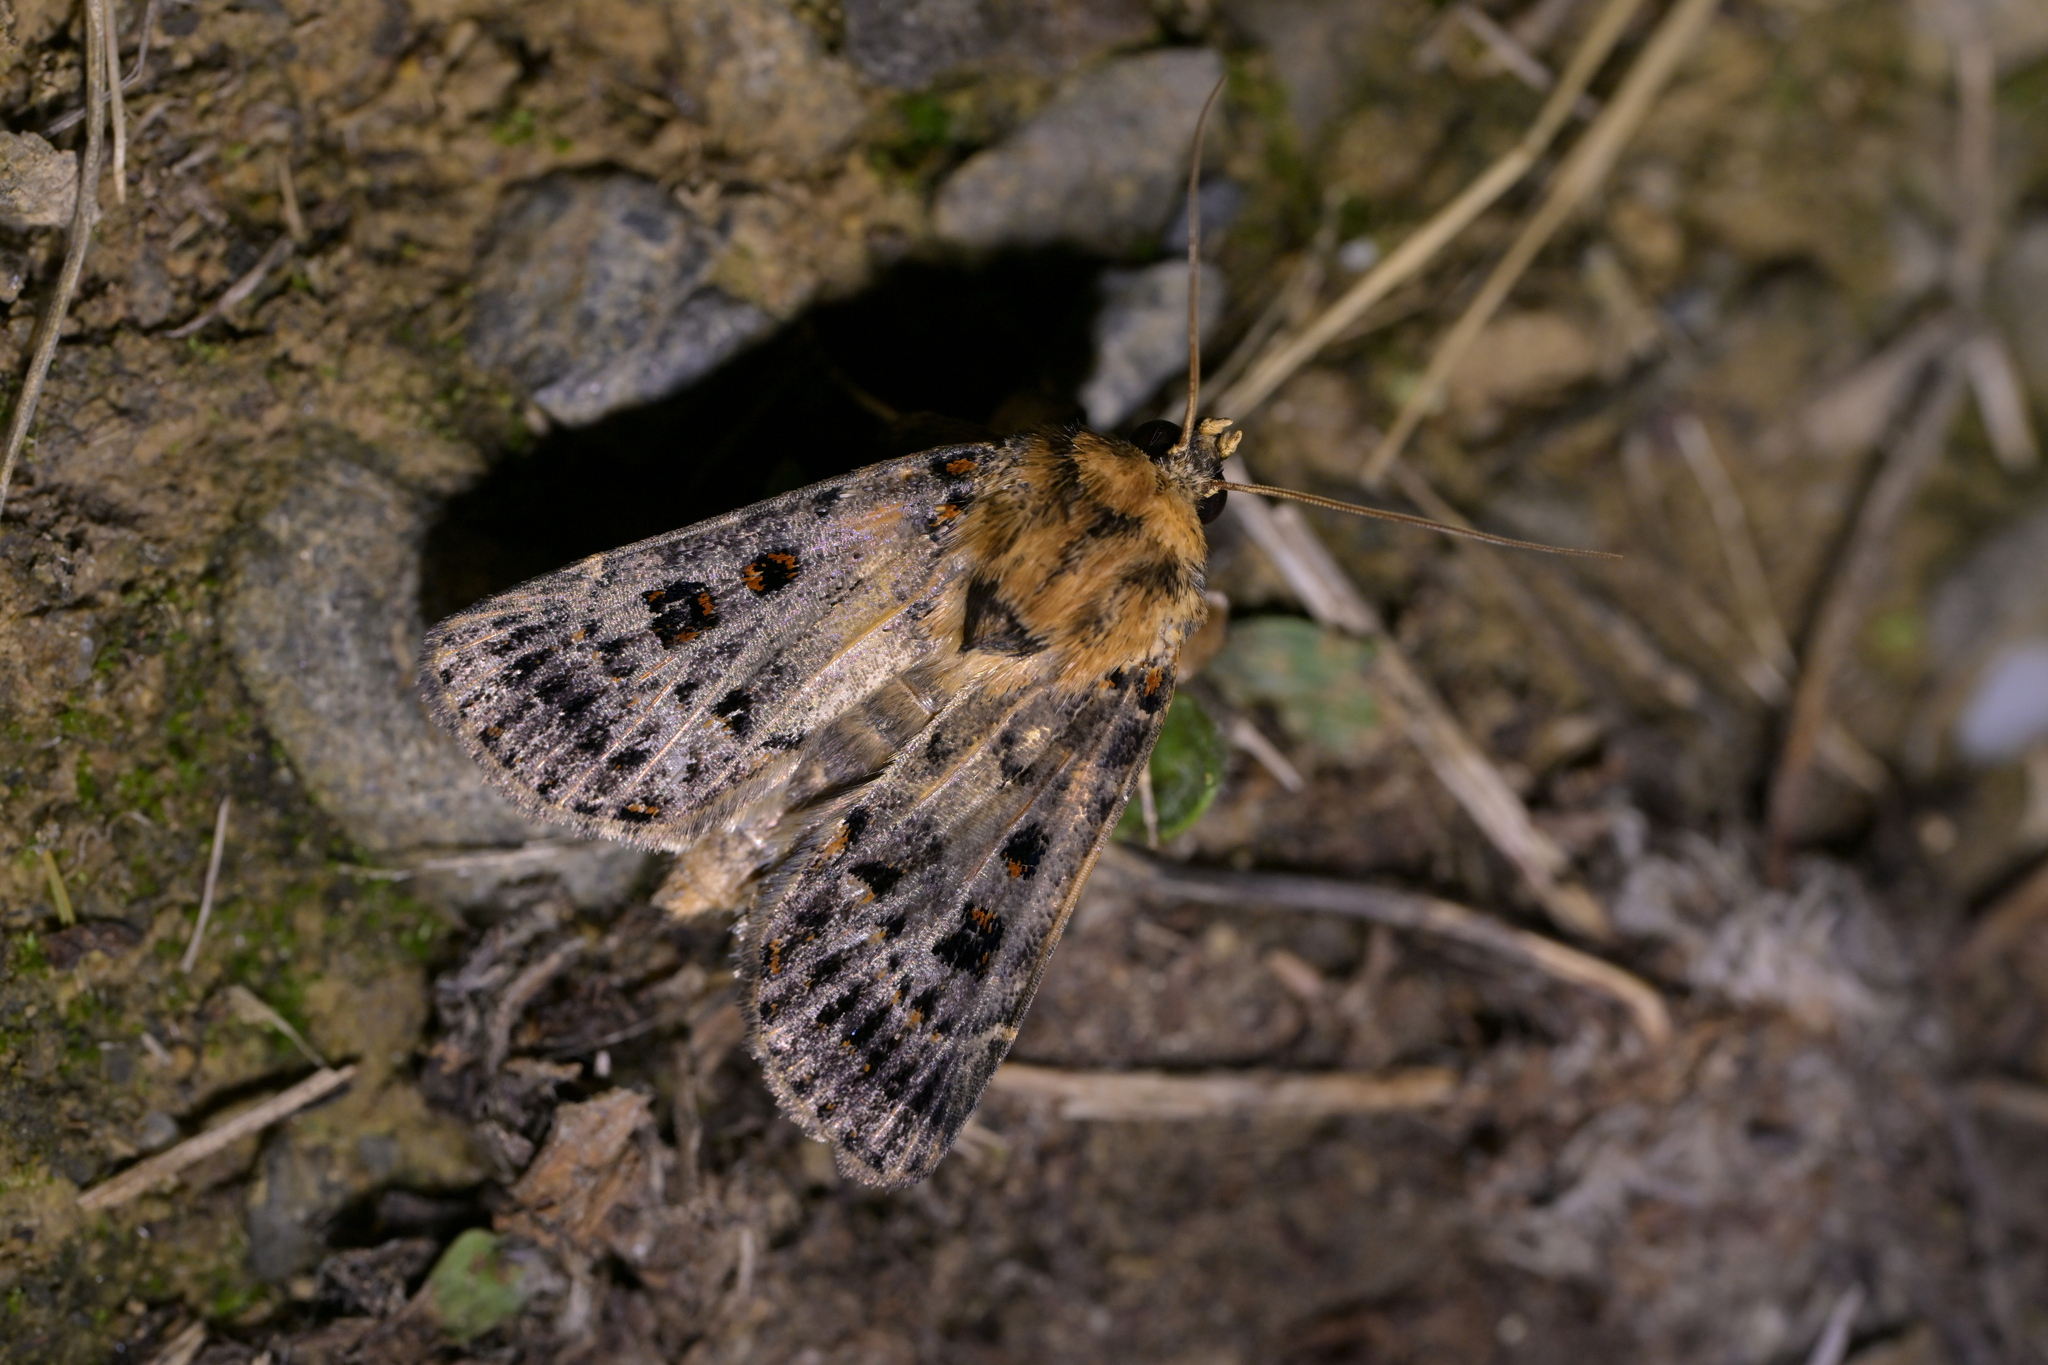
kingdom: Animalia
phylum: Arthropoda
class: Insecta
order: Lepidoptera
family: Noctuidae
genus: Proteuxoa
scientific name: Proteuxoa sanguinipuncta
